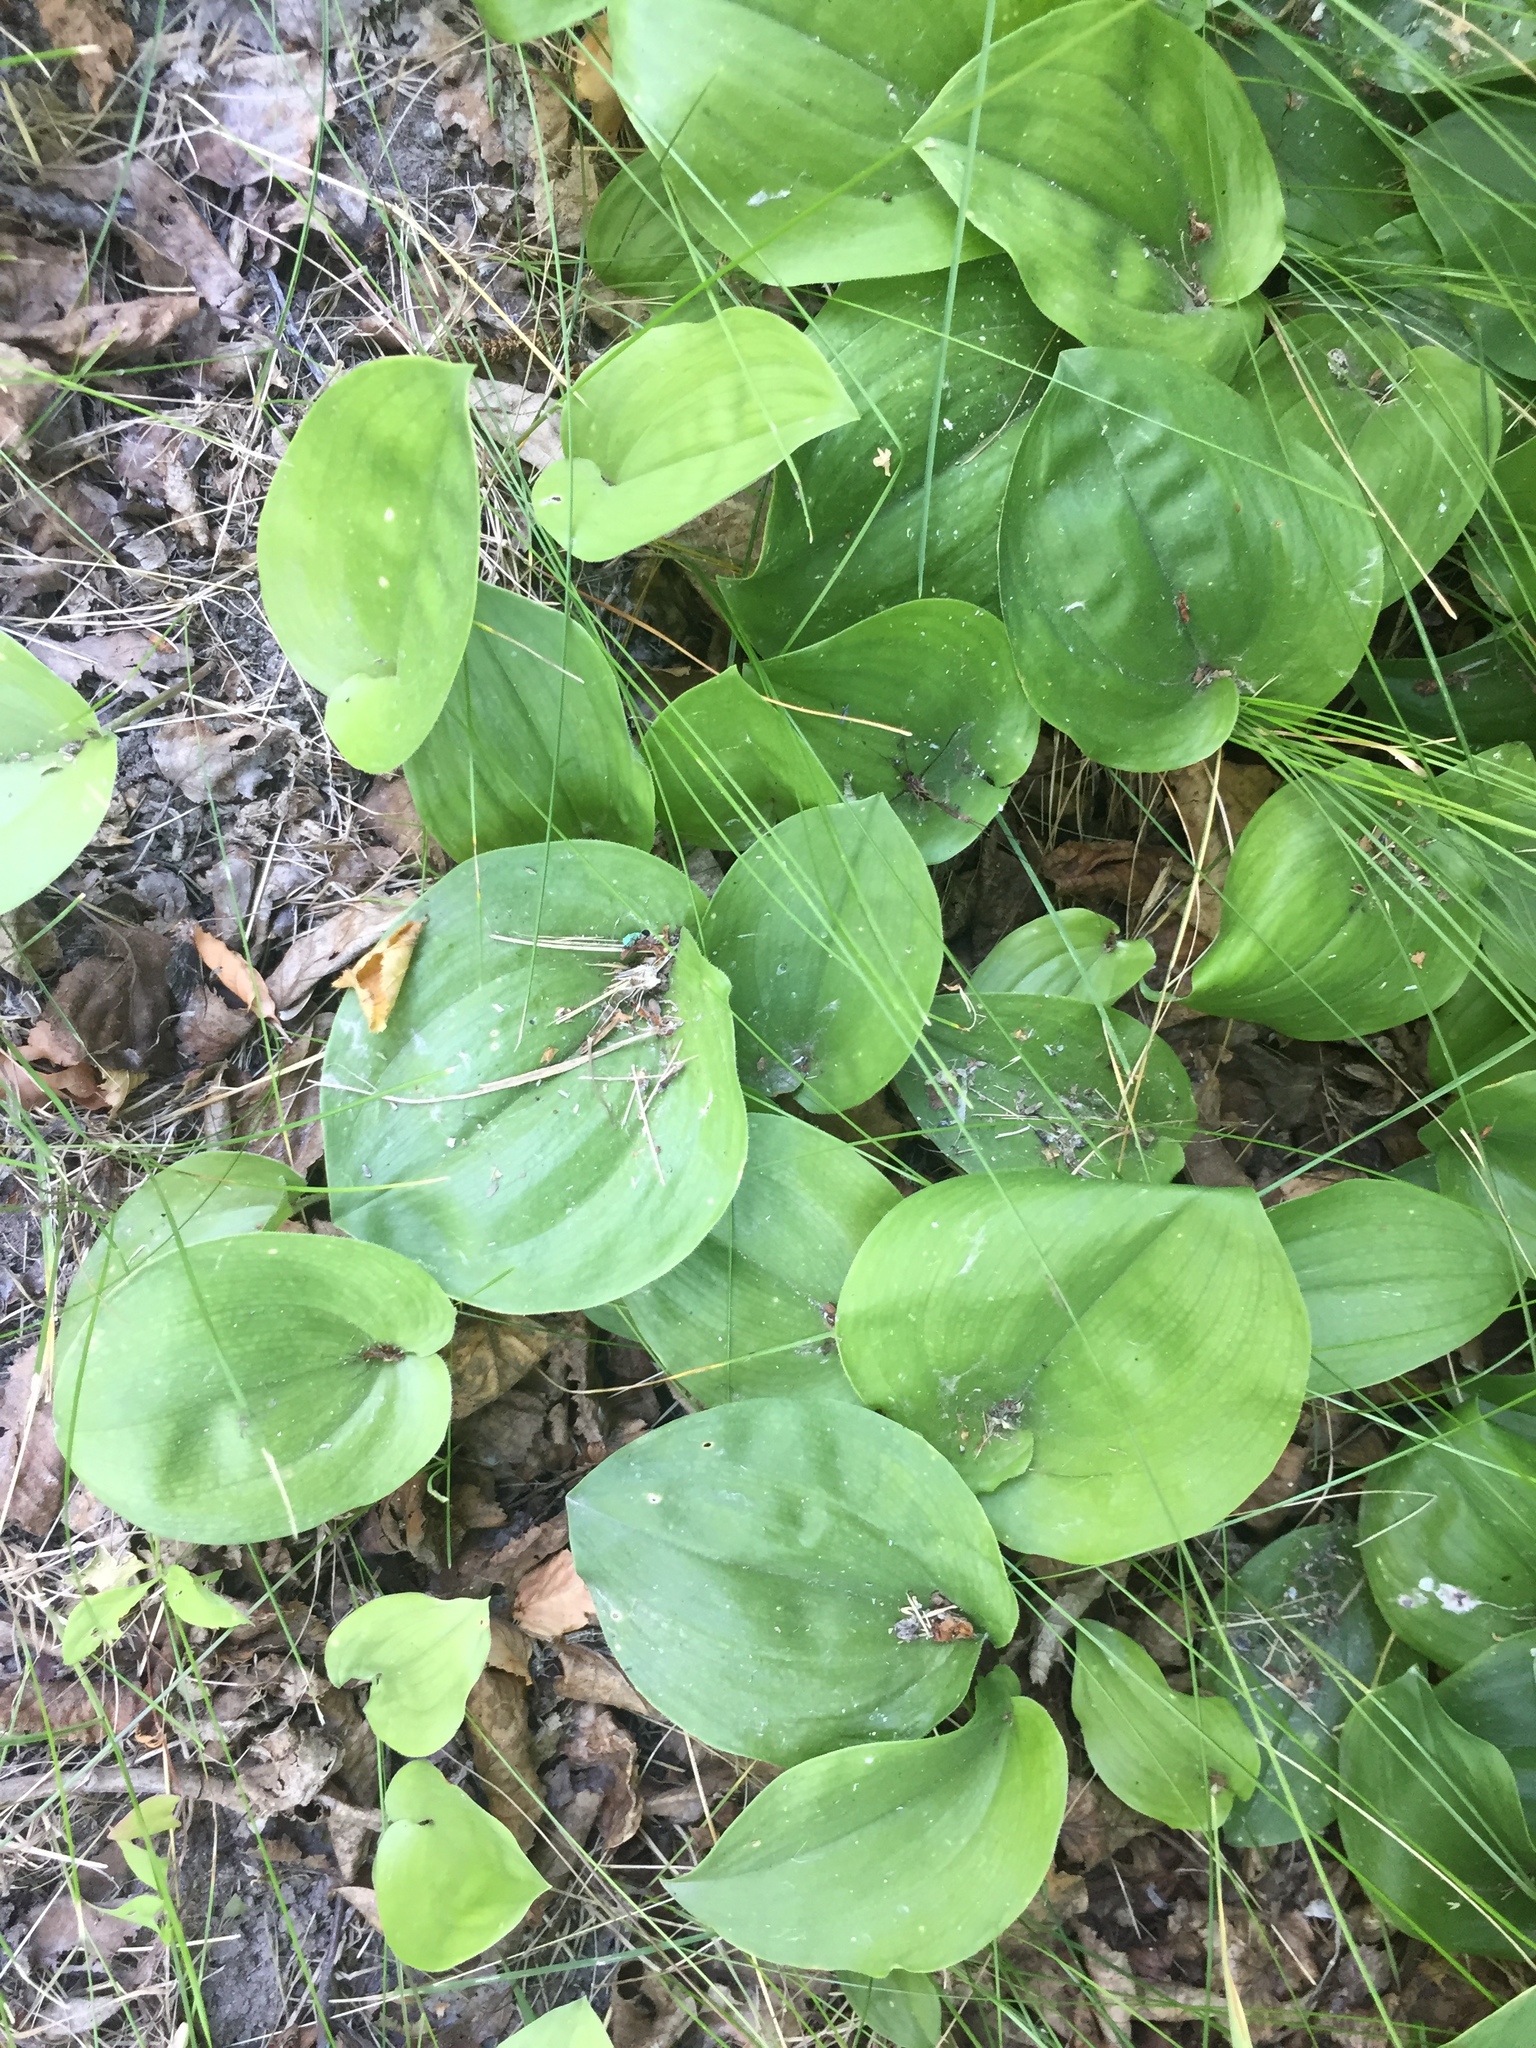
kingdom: Plantae
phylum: Tracheophyta
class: Liliopsida
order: Asparagales
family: Asparagaceae
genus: Maianthemum
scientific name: Maianthemum canadense
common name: False lily-of-the-valley
